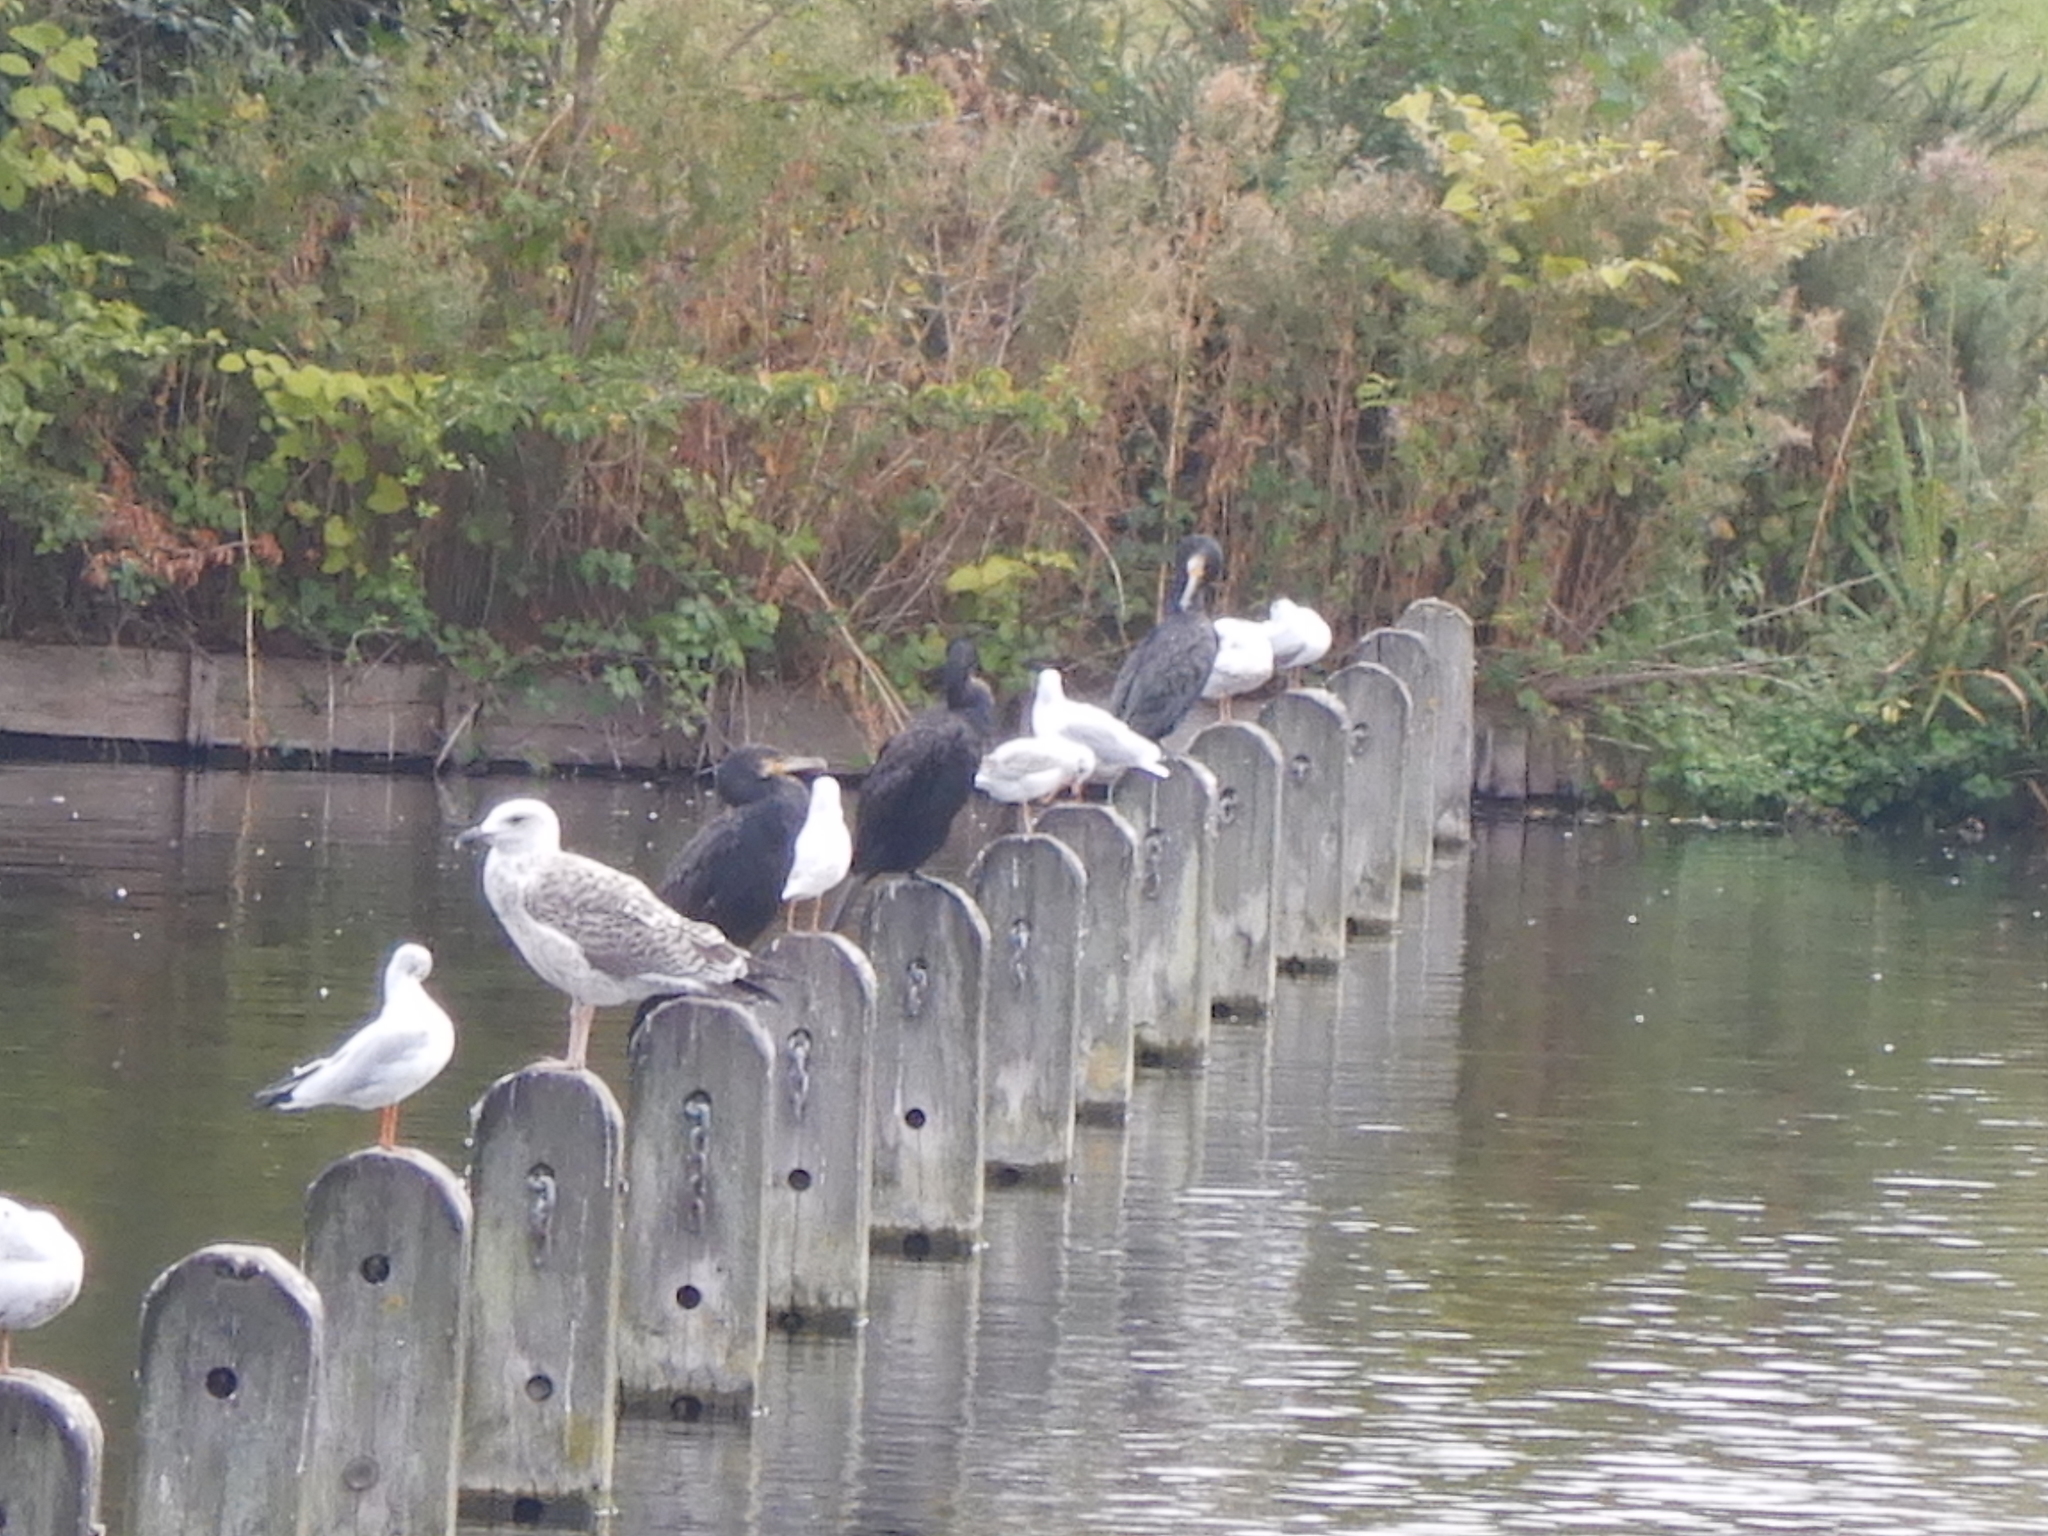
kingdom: Animalia
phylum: Chordata
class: Aves
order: Suliformes
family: Phalacrocoracidae
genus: Phalacrocorax
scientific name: Phalacrocorax carbo
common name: Great cormorant
